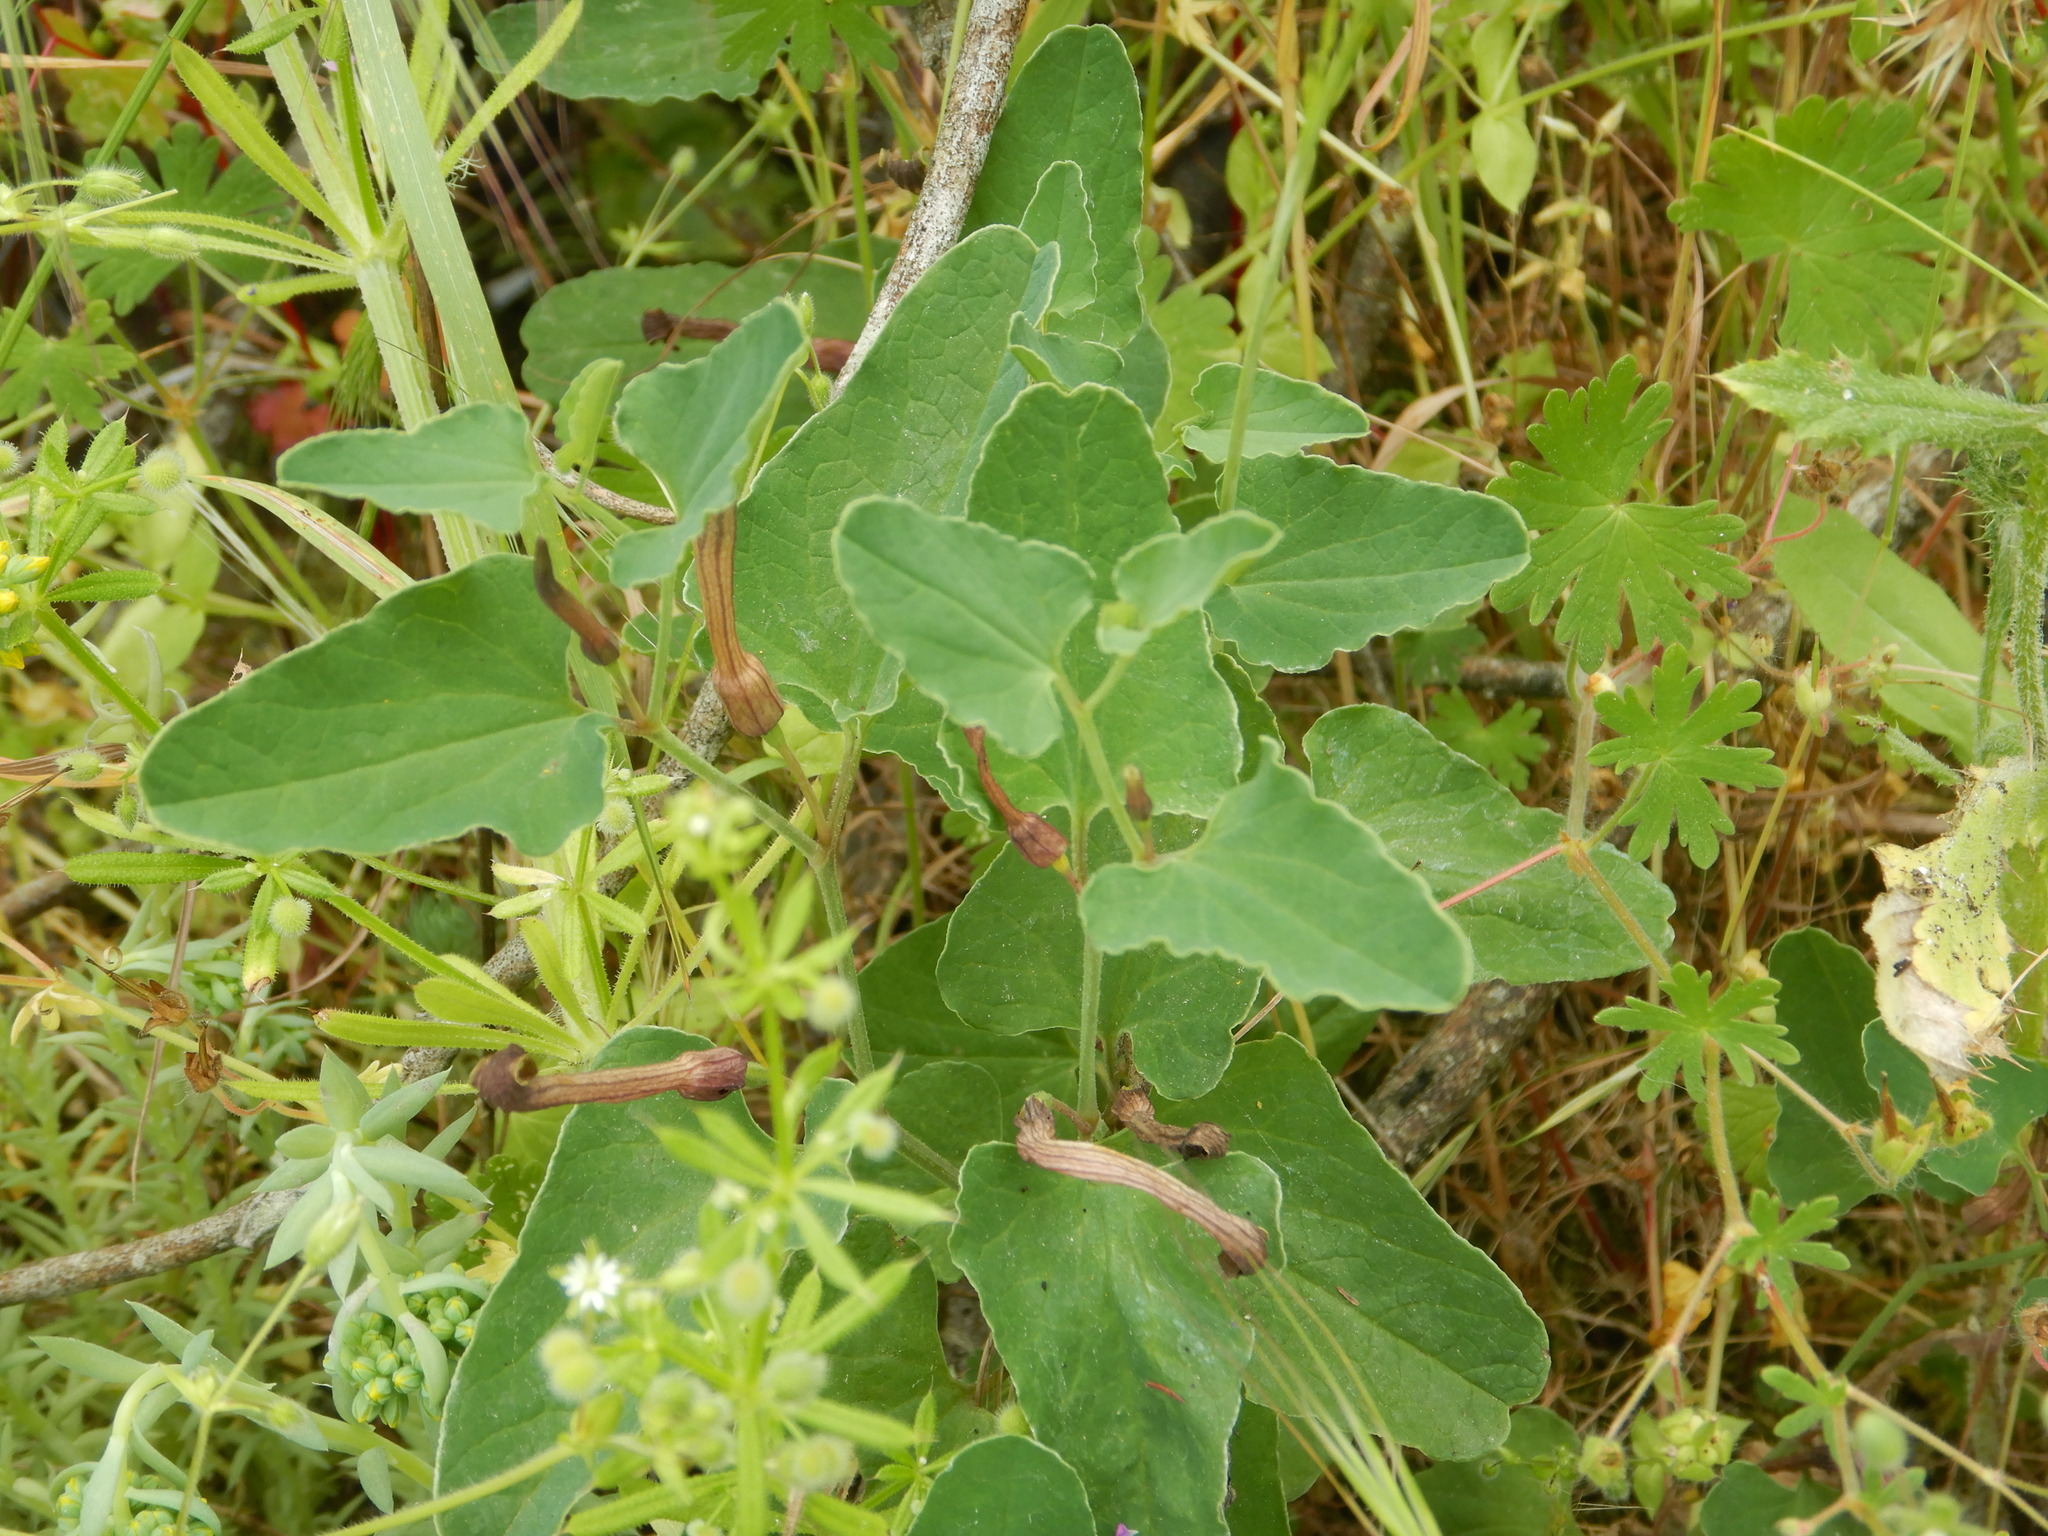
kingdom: Plantae
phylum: Tracheophyta
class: Magnoliopsida
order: Piperales
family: Aristolochiaceae
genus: Aristolochia
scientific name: Aristolochia paucinervis
